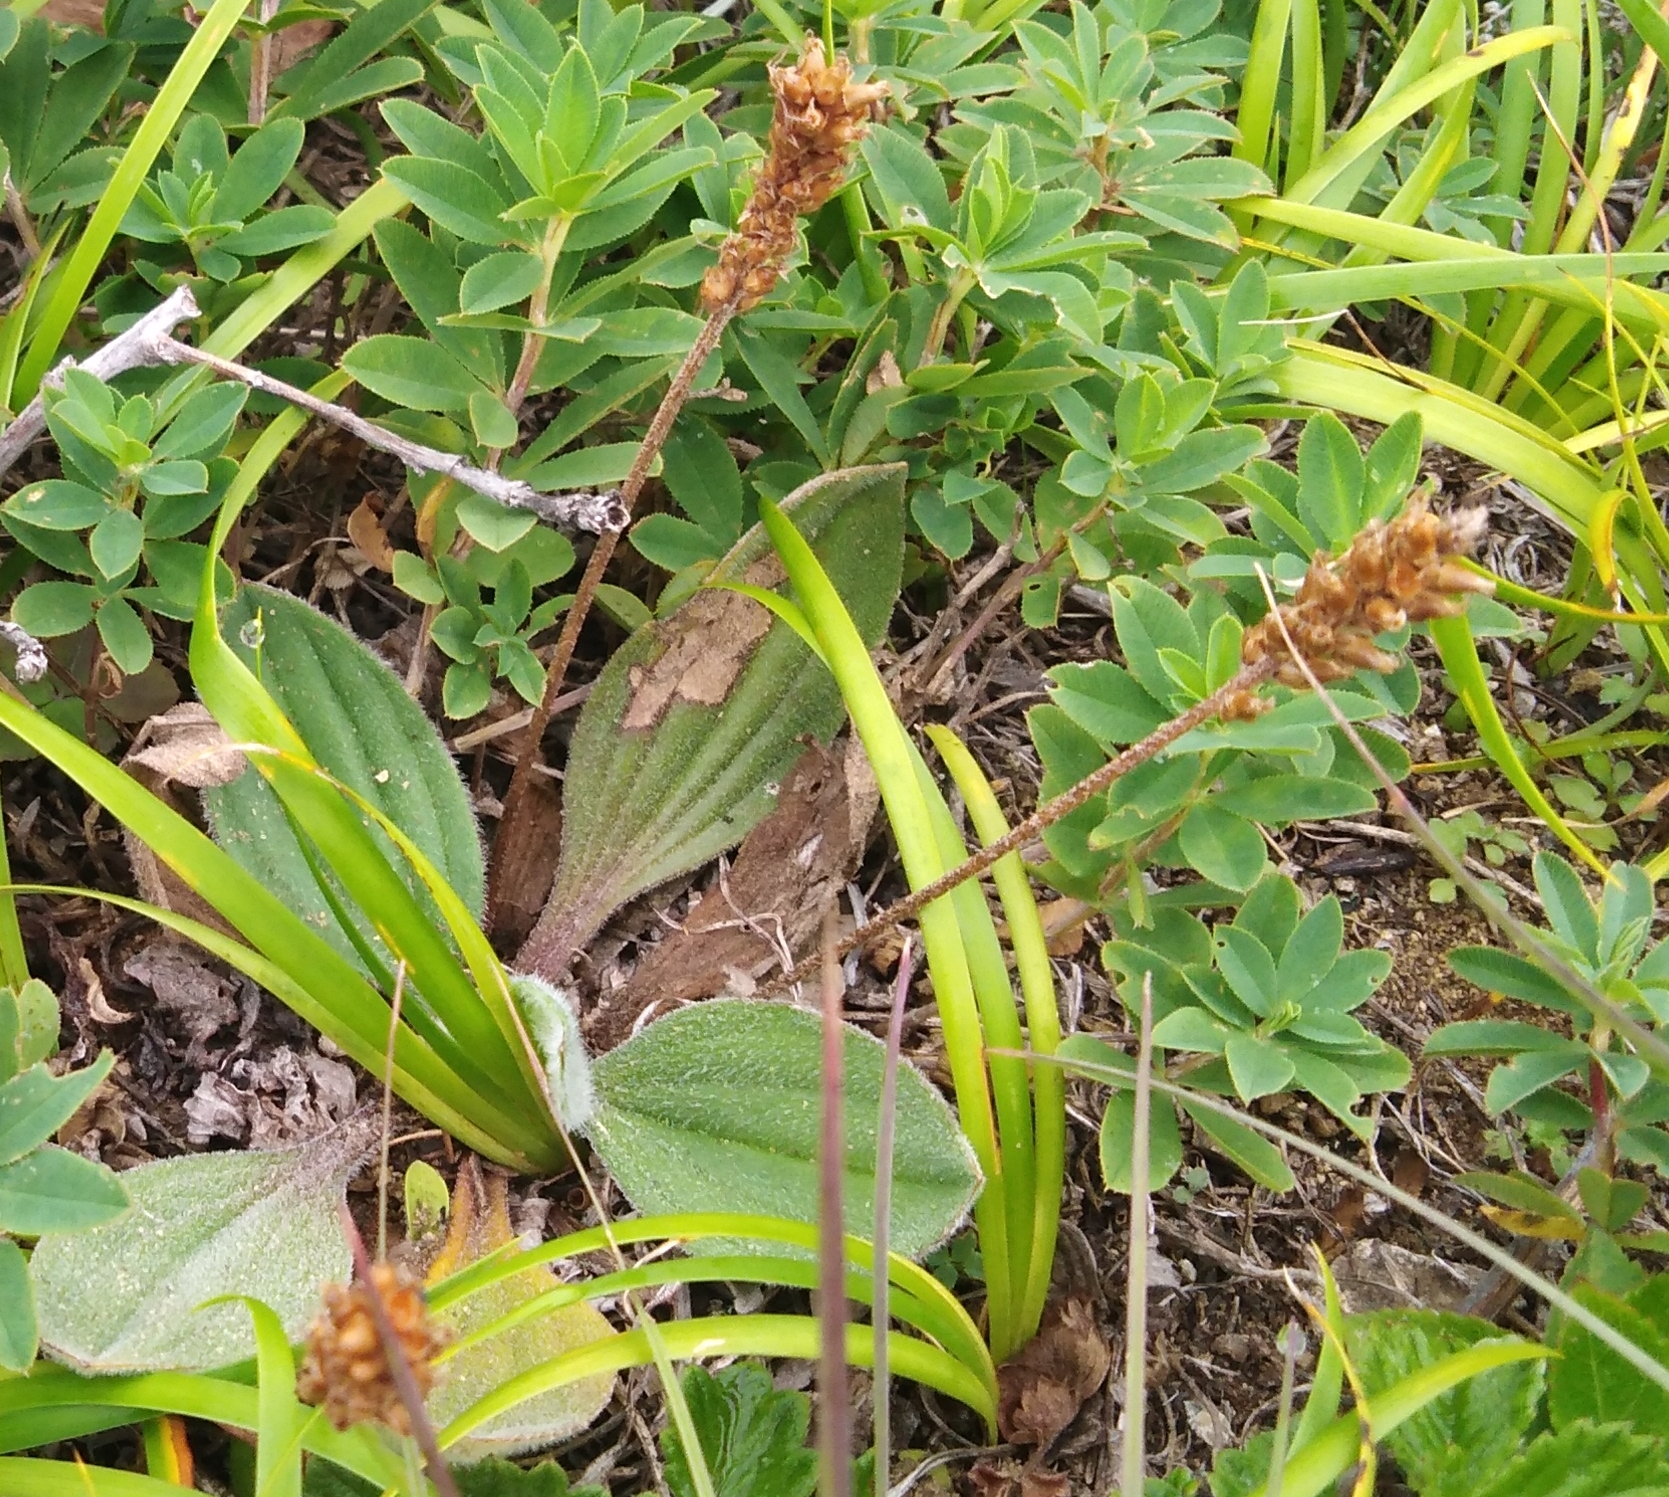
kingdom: Plantae
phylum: Tracheophyta
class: Magnoliopsida
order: Lamiales
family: Plantaginaceae
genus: Plantago
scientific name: Plantago camtschatica
